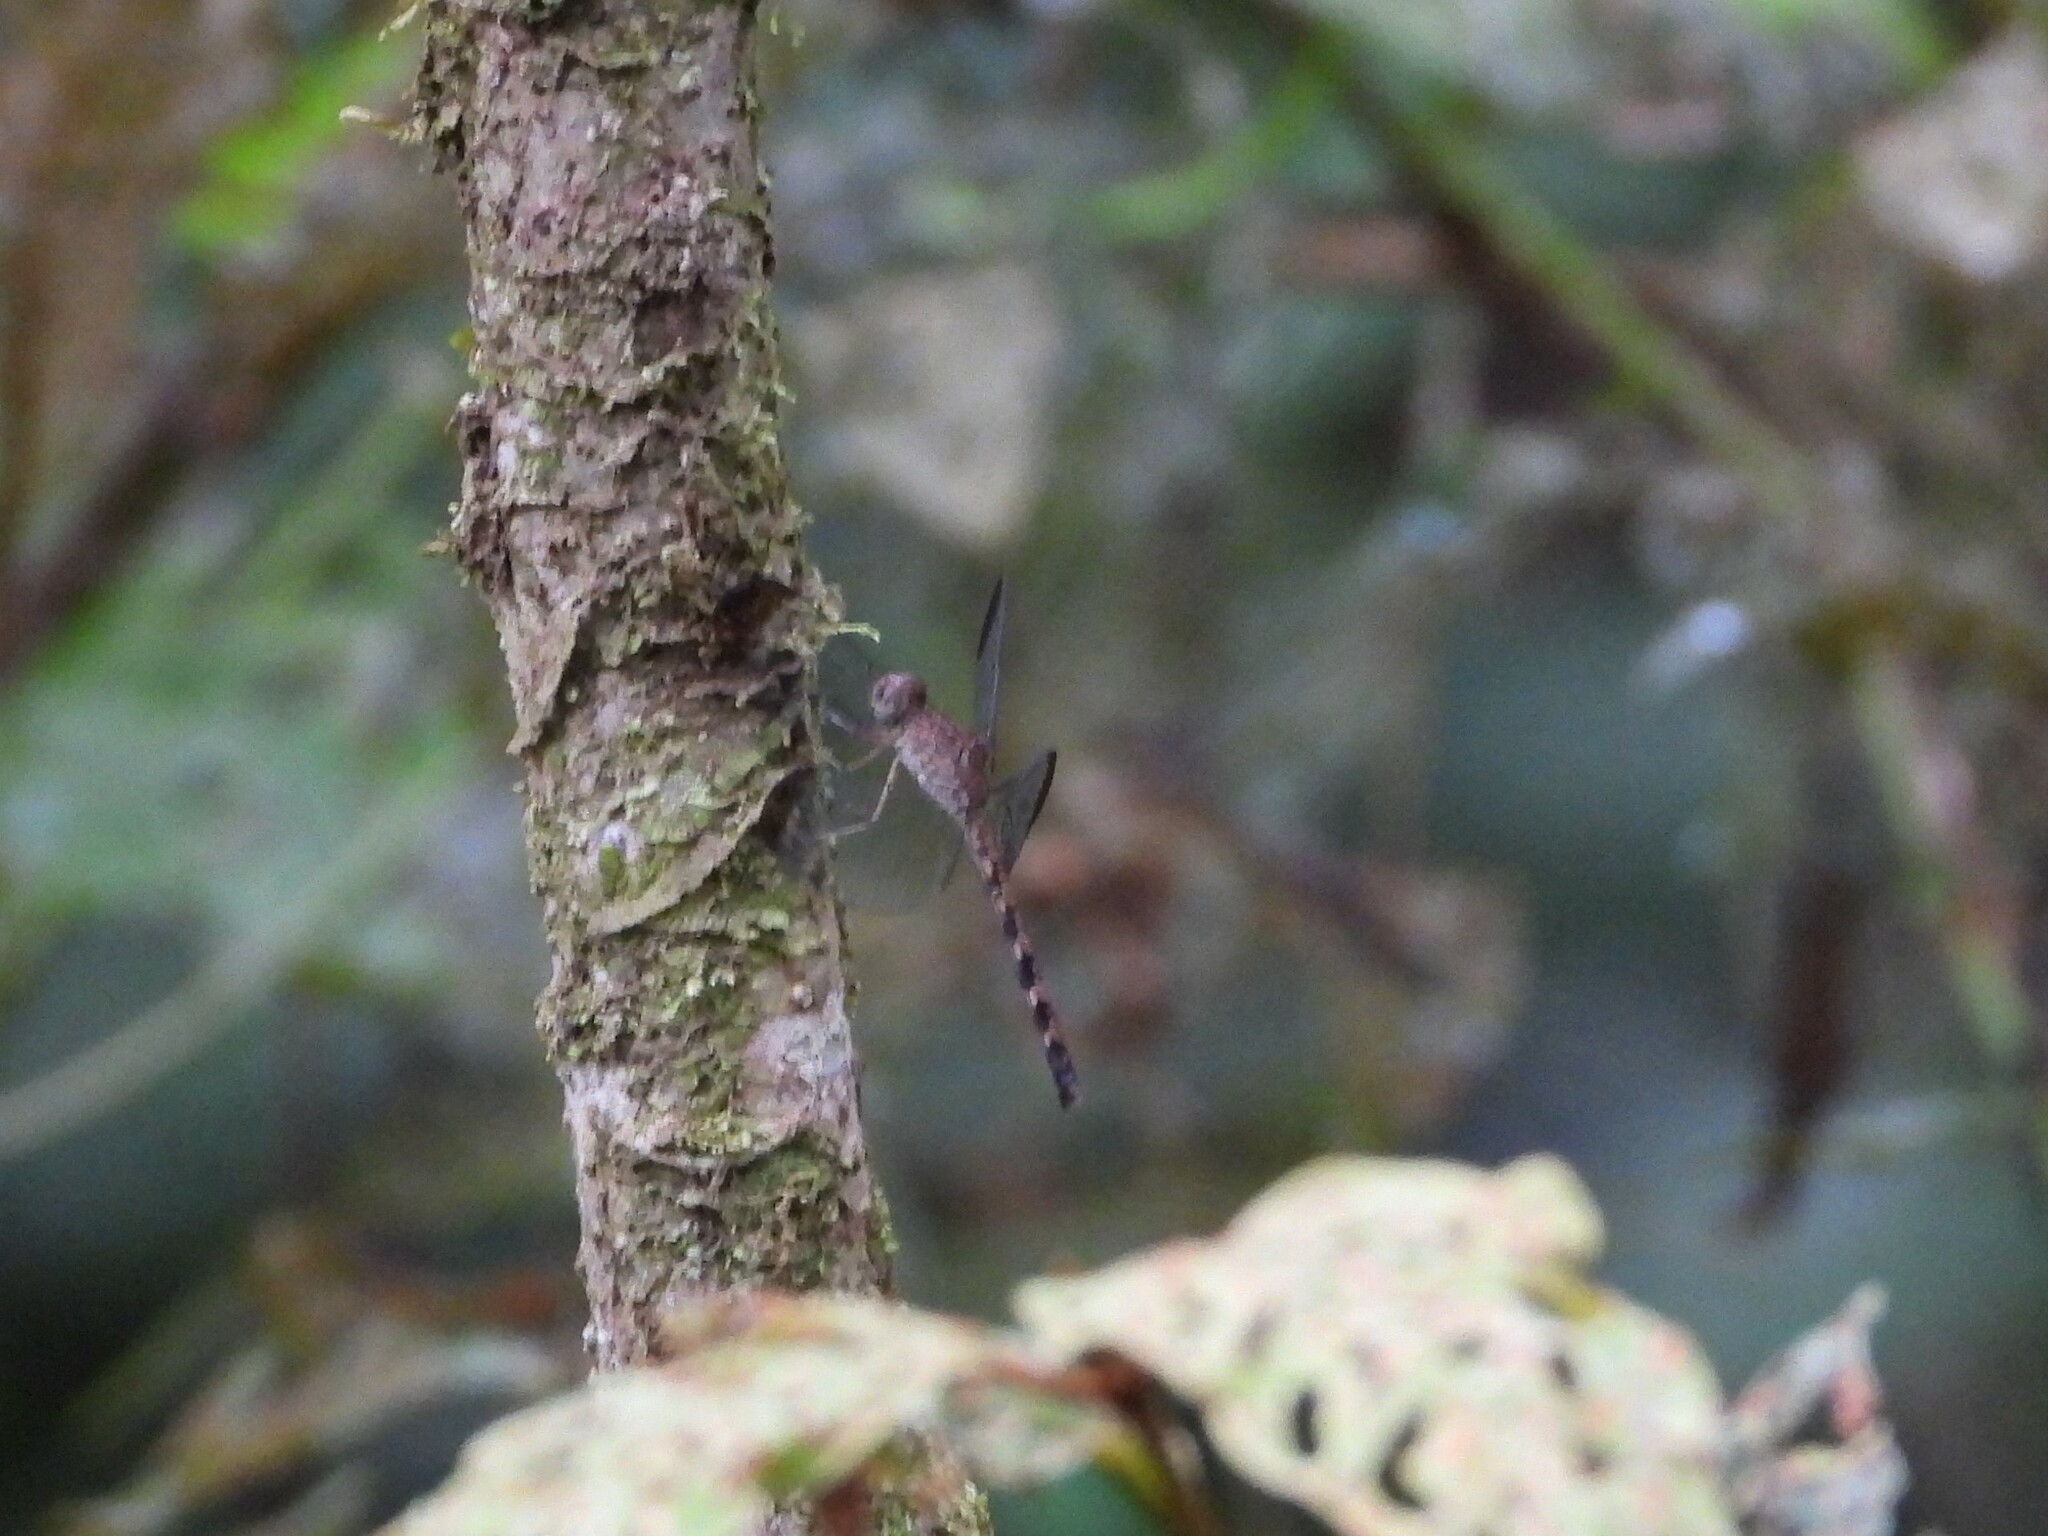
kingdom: Animalia
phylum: Arthropoda
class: Insecta
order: Odonata
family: Libellulidae
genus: Uracis
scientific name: Uracis imbuta
